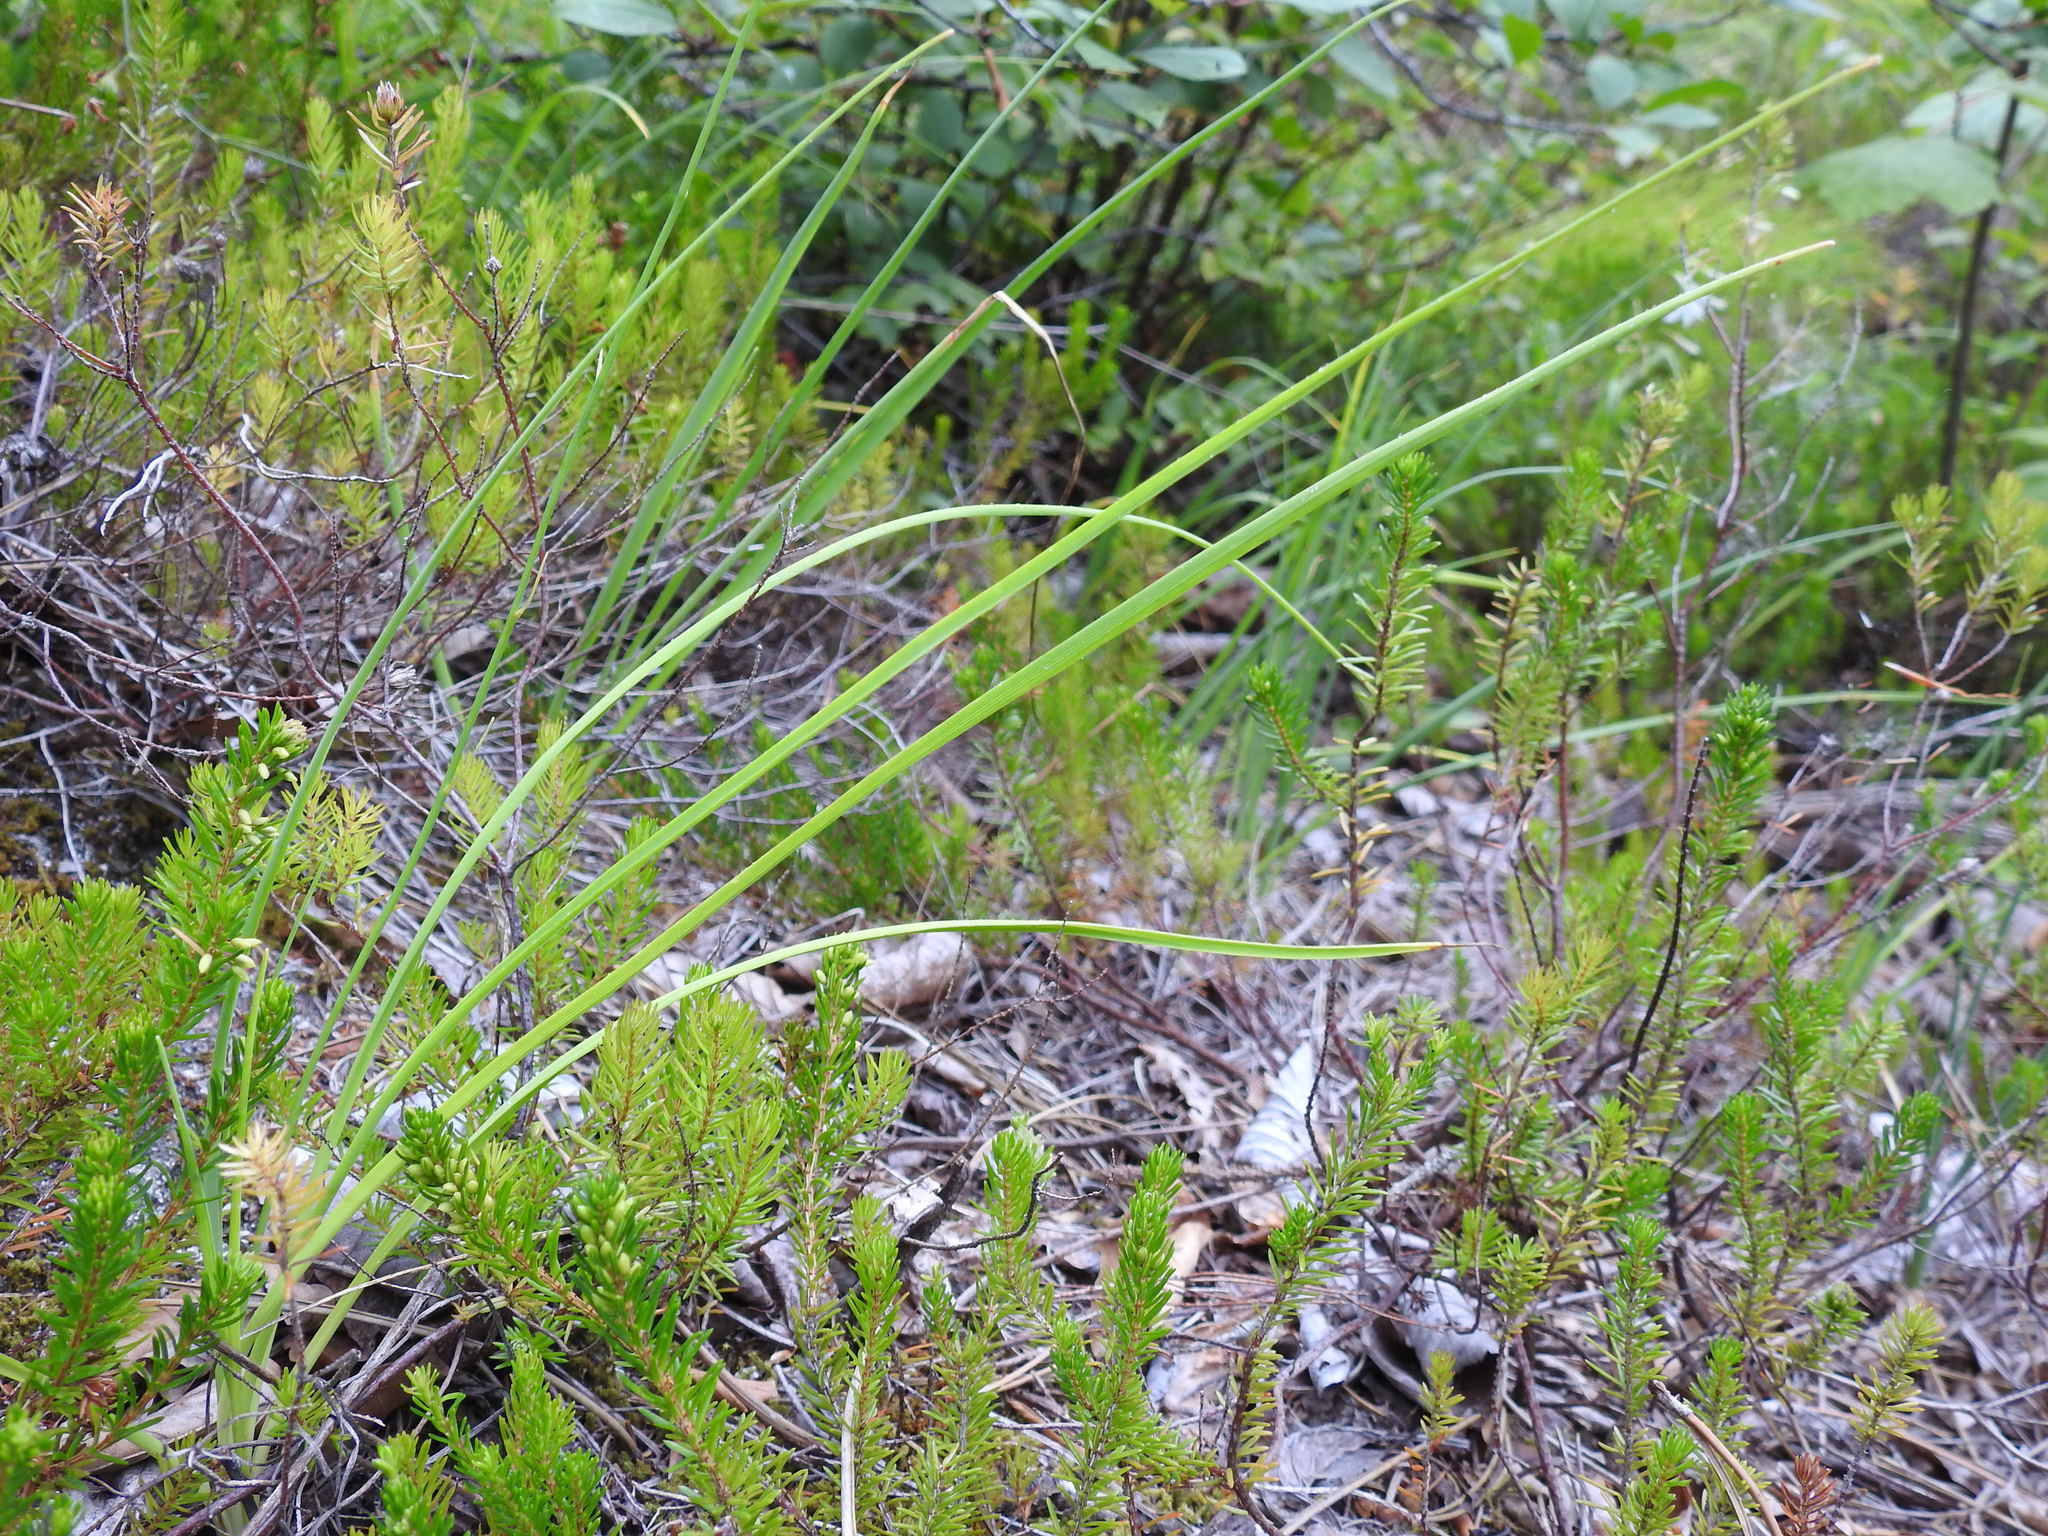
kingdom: Plantae
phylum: Tracheophyta
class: Liliopsida
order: Asparagales
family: Asparagaceae
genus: Anthericum
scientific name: Anthericum ramosum
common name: Branched st. bernard's-lily
